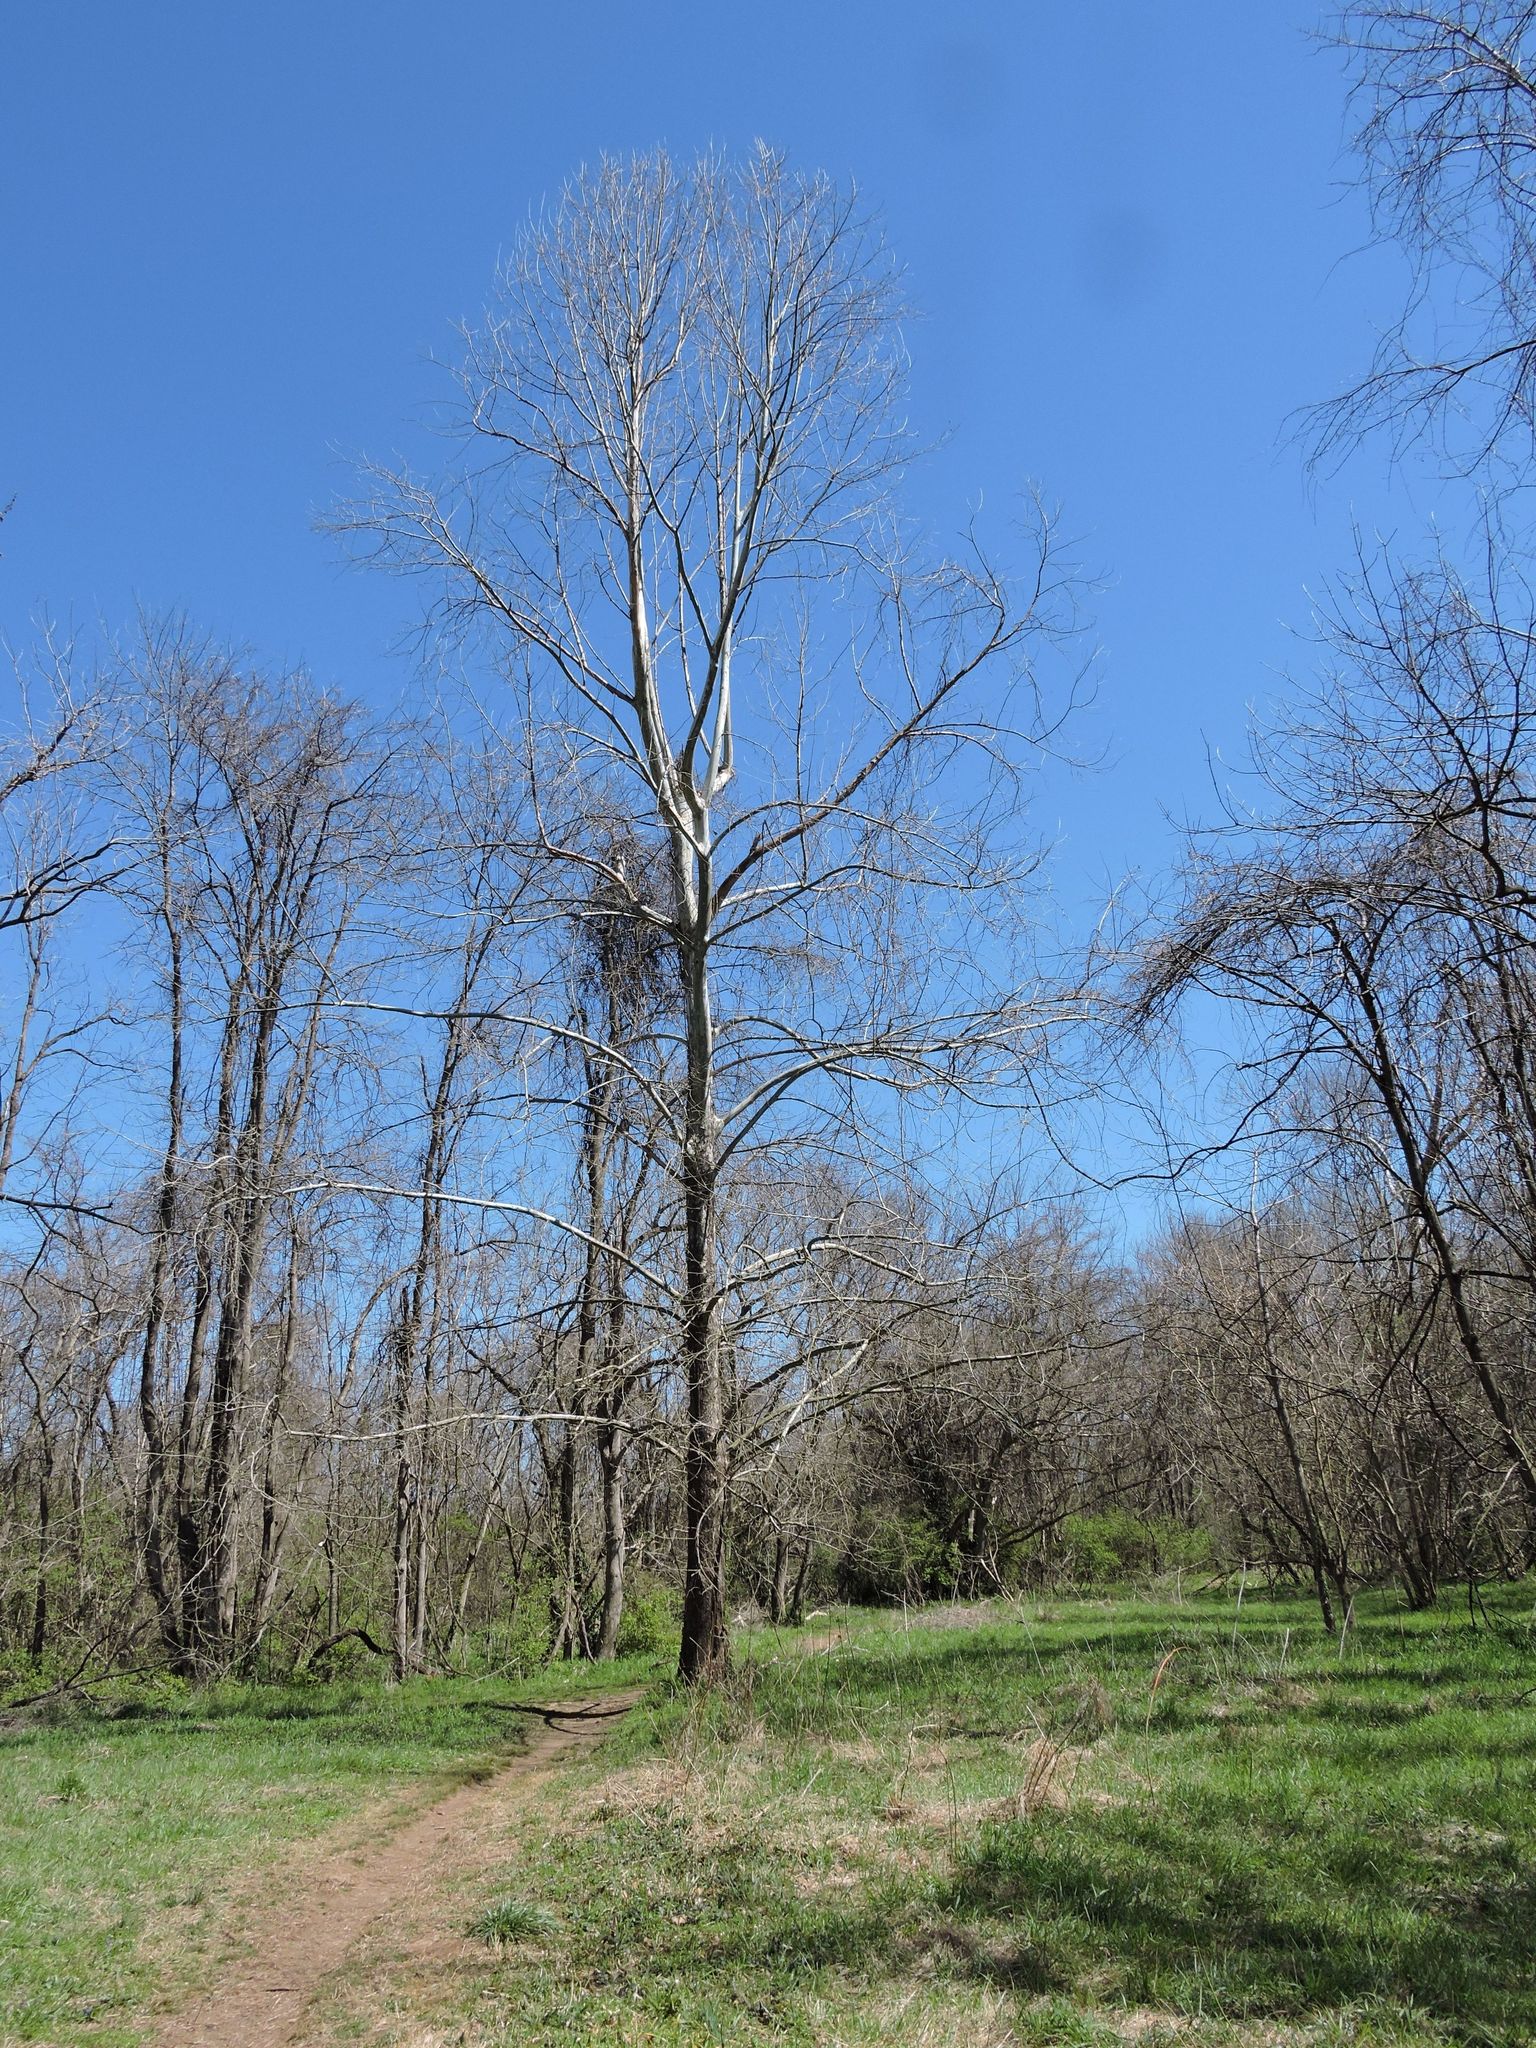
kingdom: Plantae
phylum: Tracheophyta
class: Magnoliopsida
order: Proteales
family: Platanaceae
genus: Platanus
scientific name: Platanus occidentalis
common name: American sycamore
